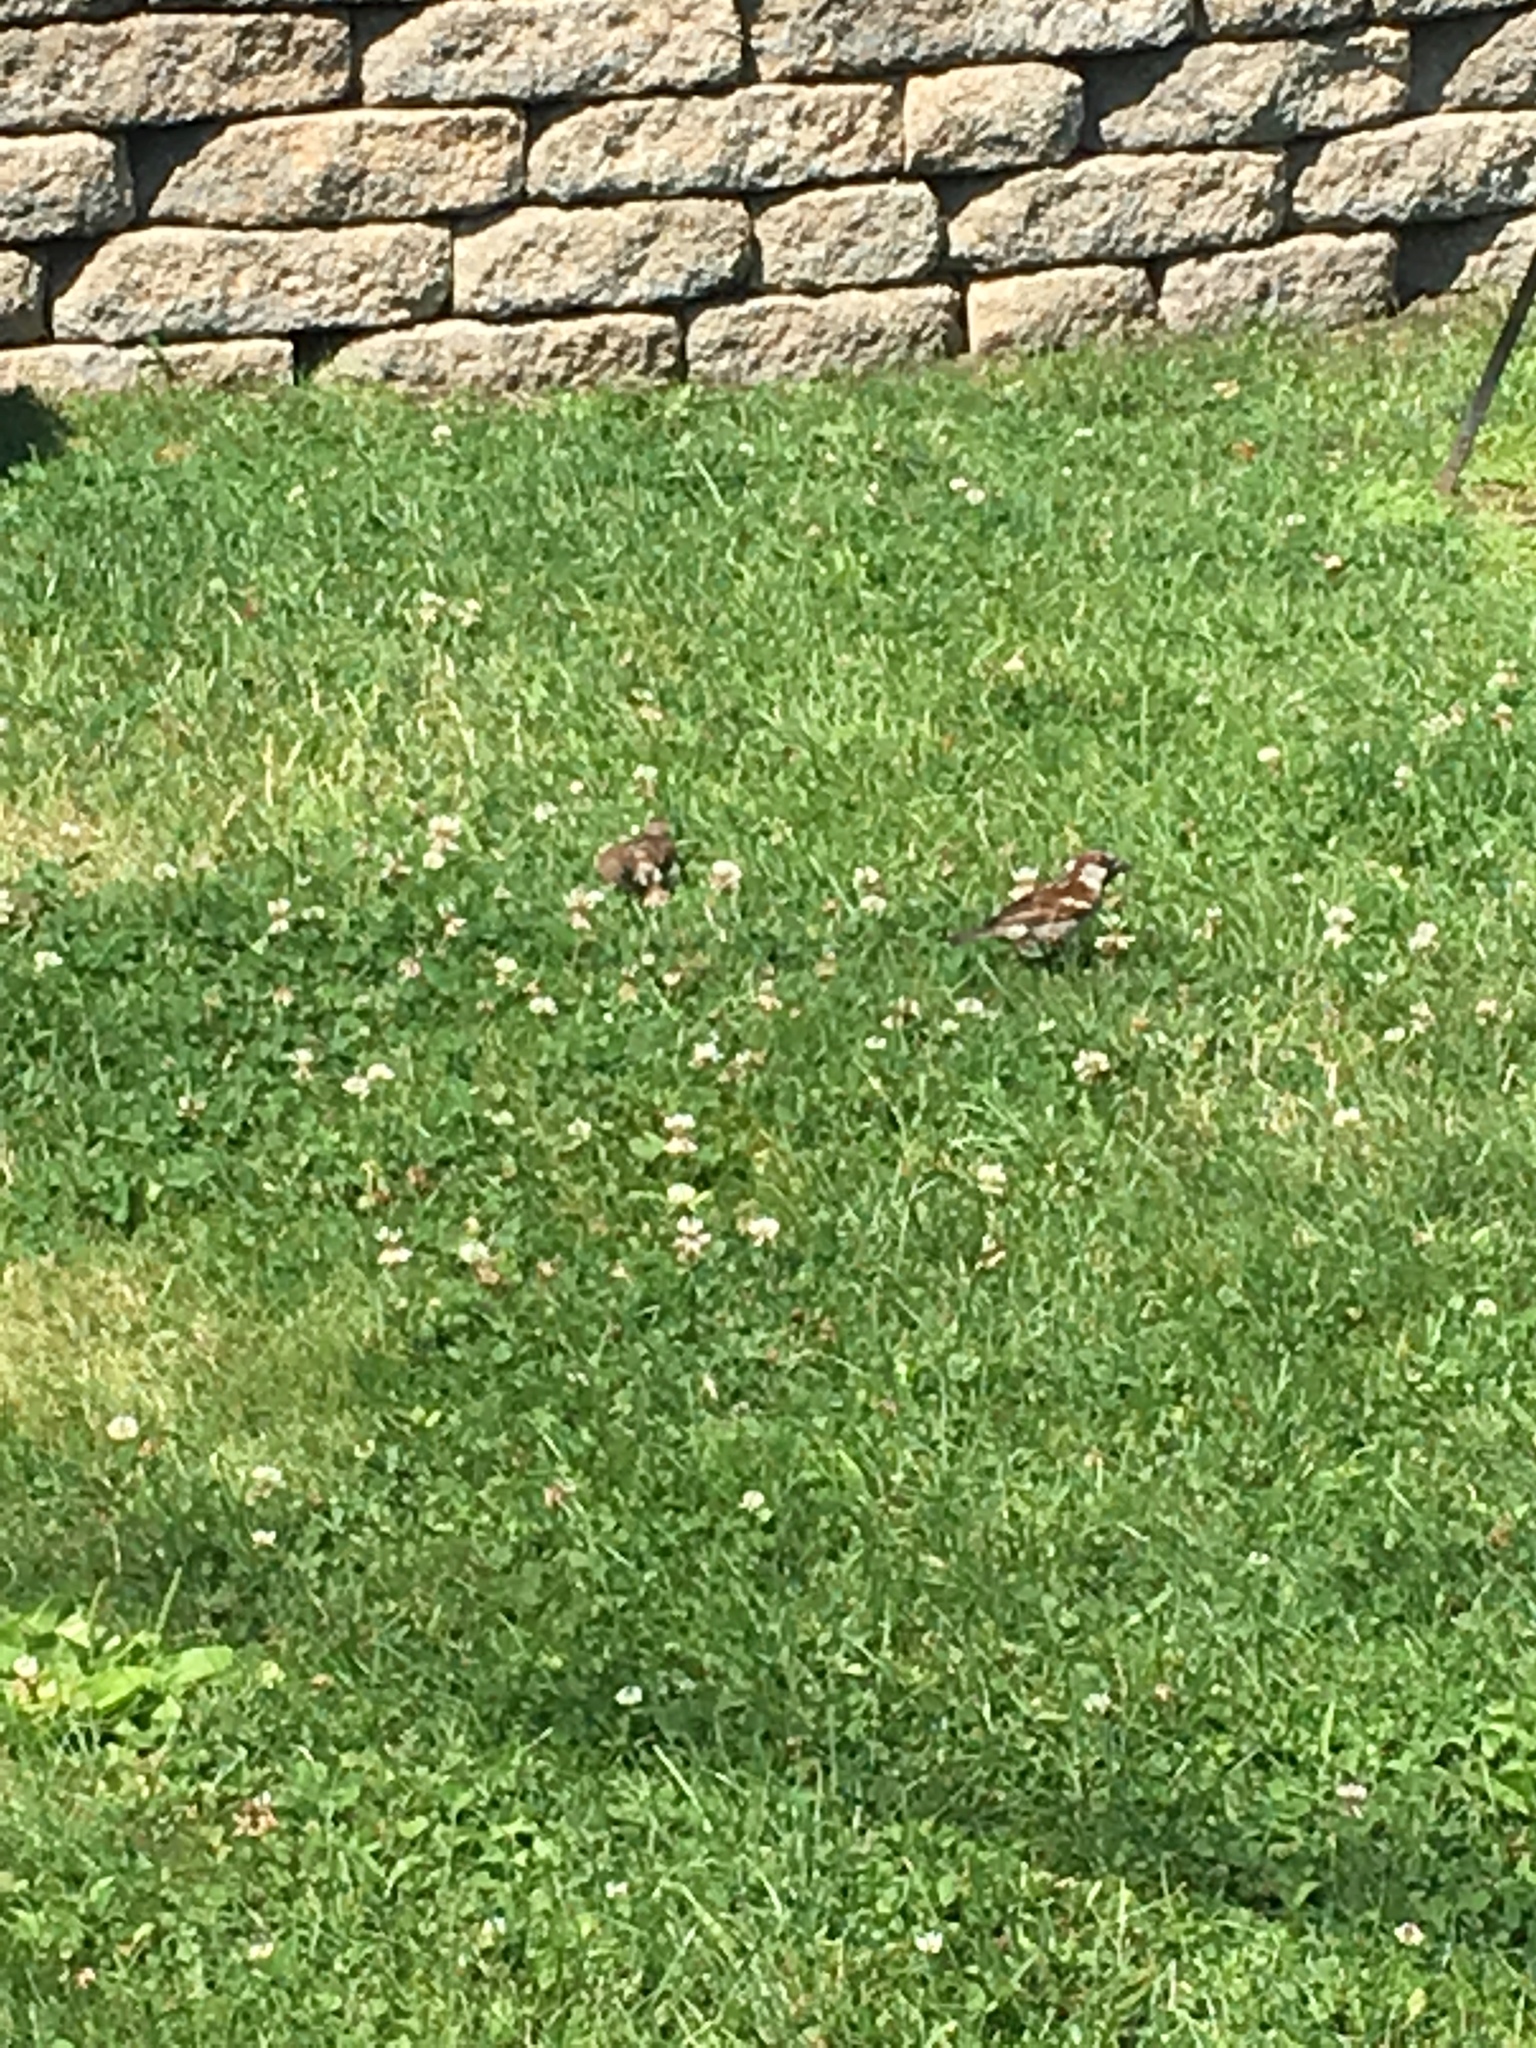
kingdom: Animalia
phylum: Chordata
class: Aves
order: Passeriformes
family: Passeridae
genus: Passer
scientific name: Passer domesticus
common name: House sparrow
